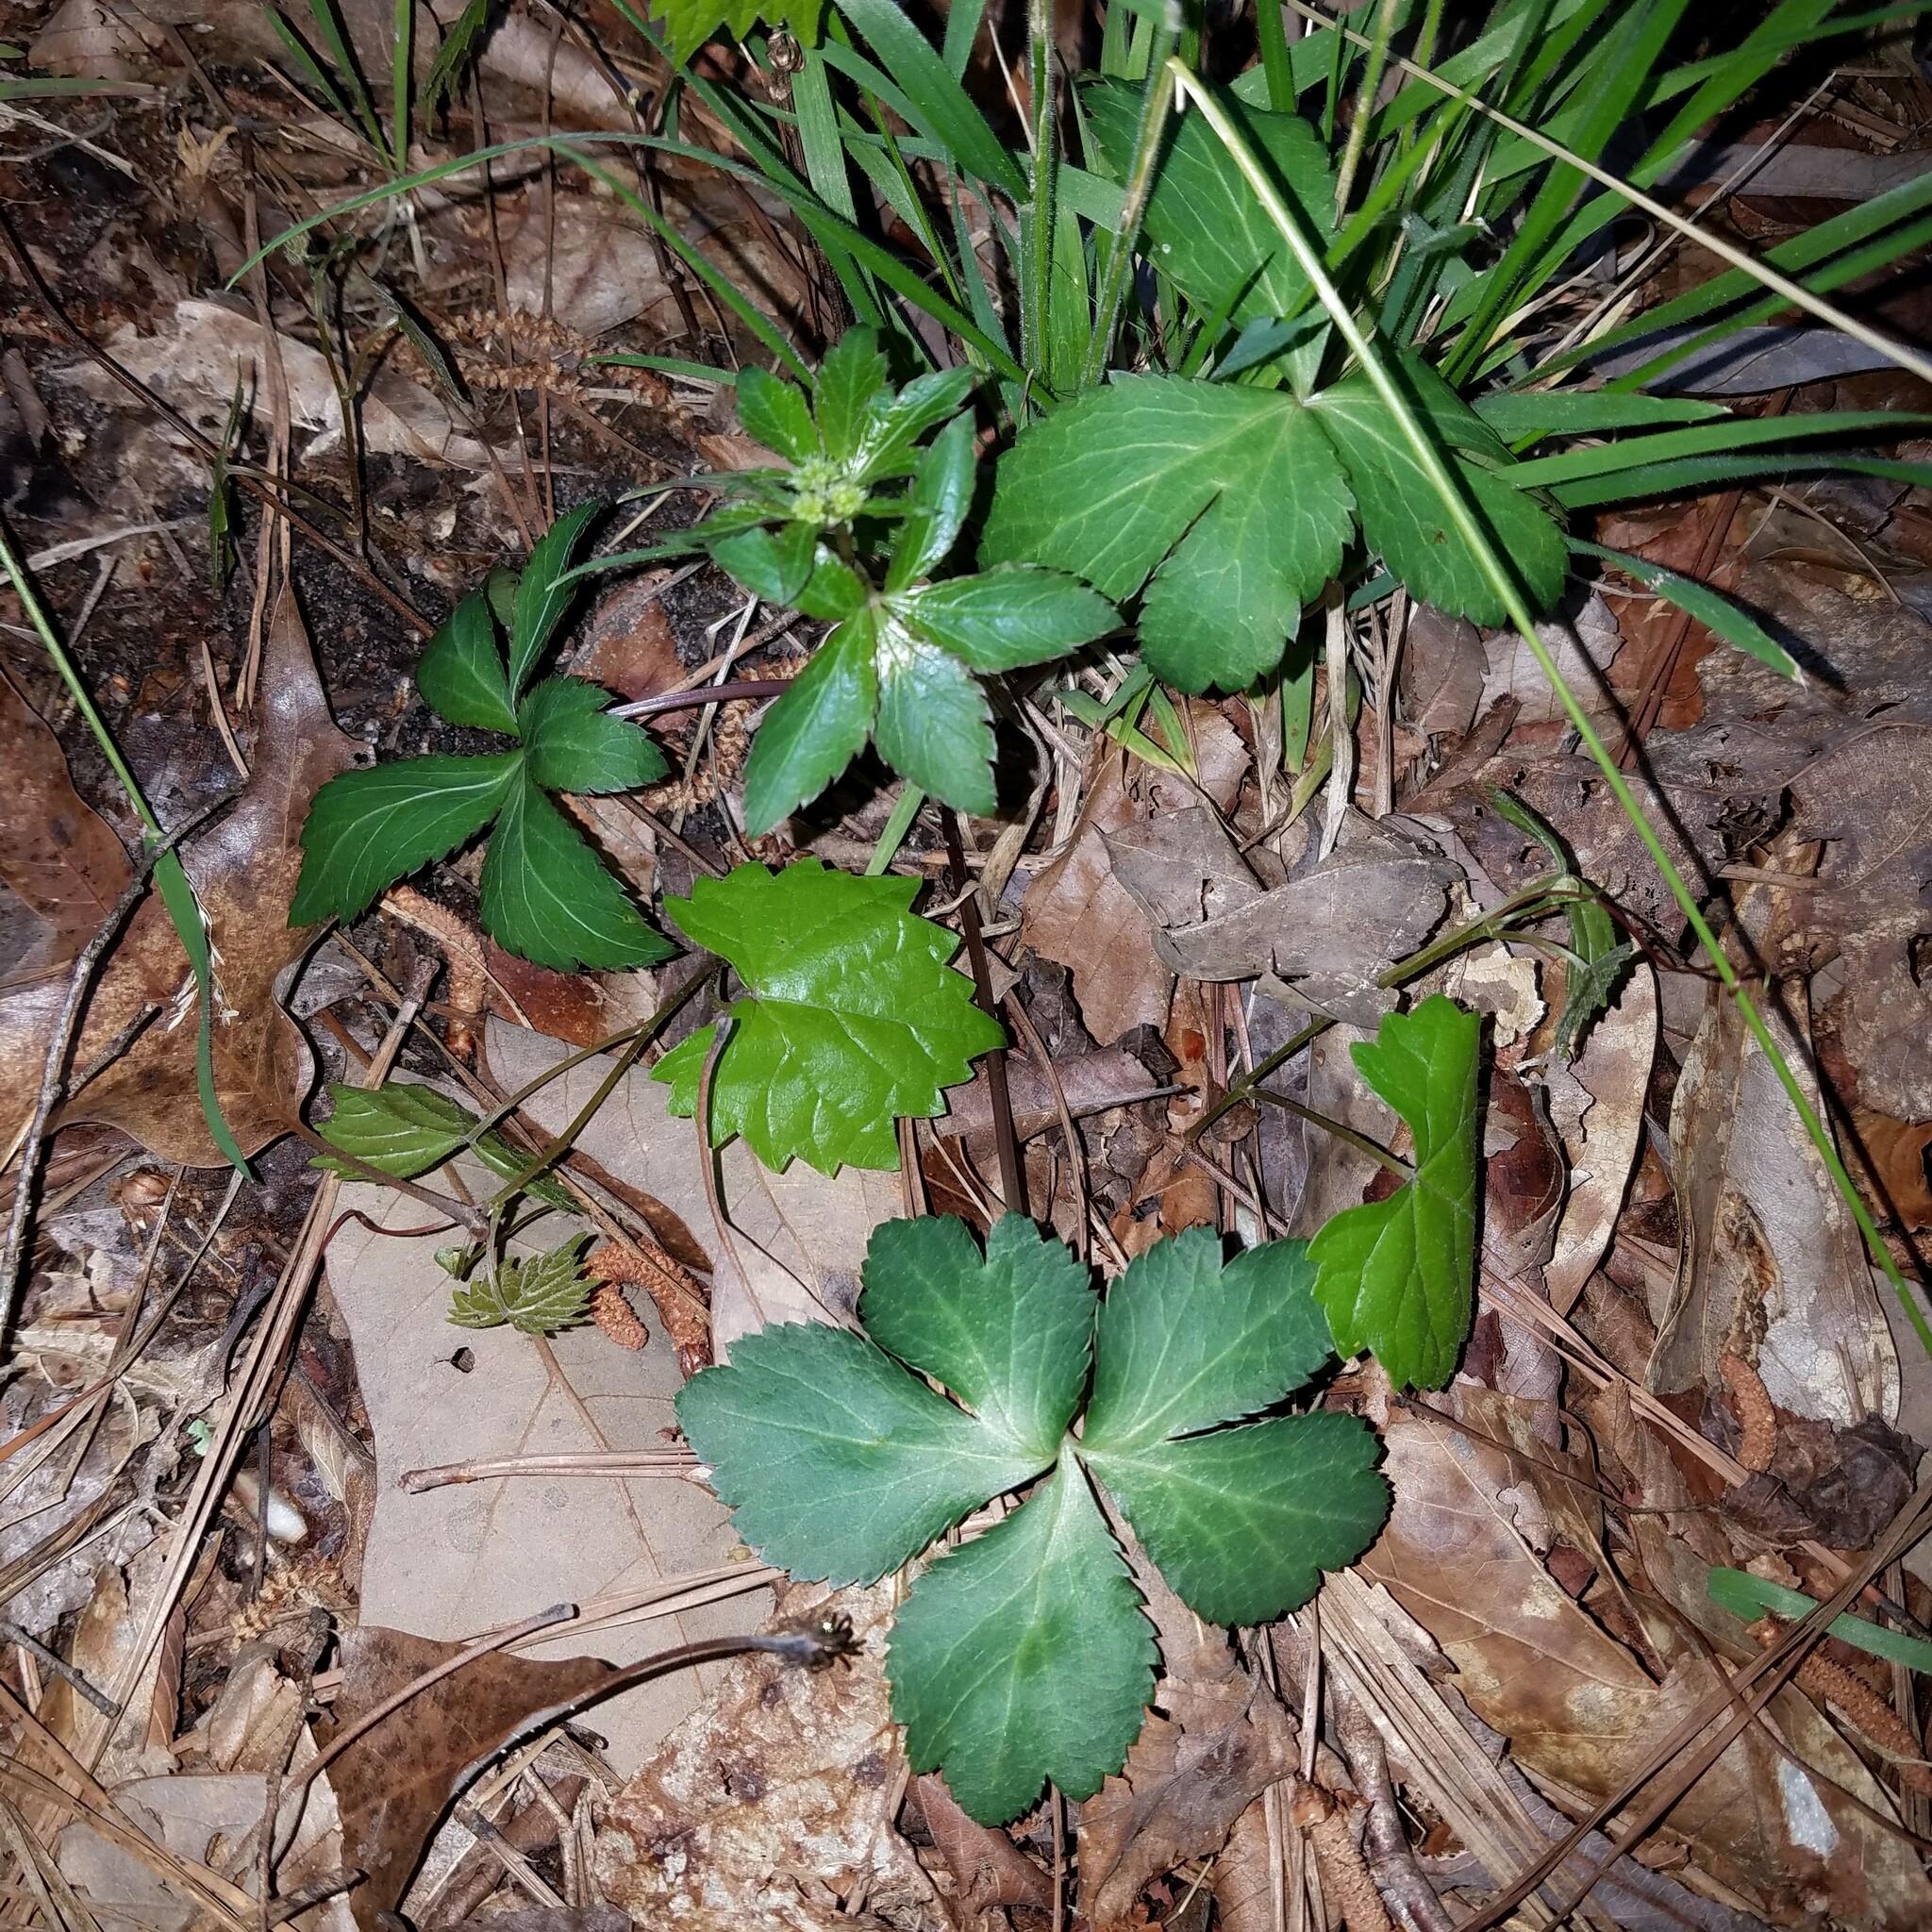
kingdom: Plantae
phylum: Tracheophyta
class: Magnoliopsida
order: Apiales
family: Apiaceae
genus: Sanicula
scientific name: Sanicula smallii
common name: Small's black snakeroot
